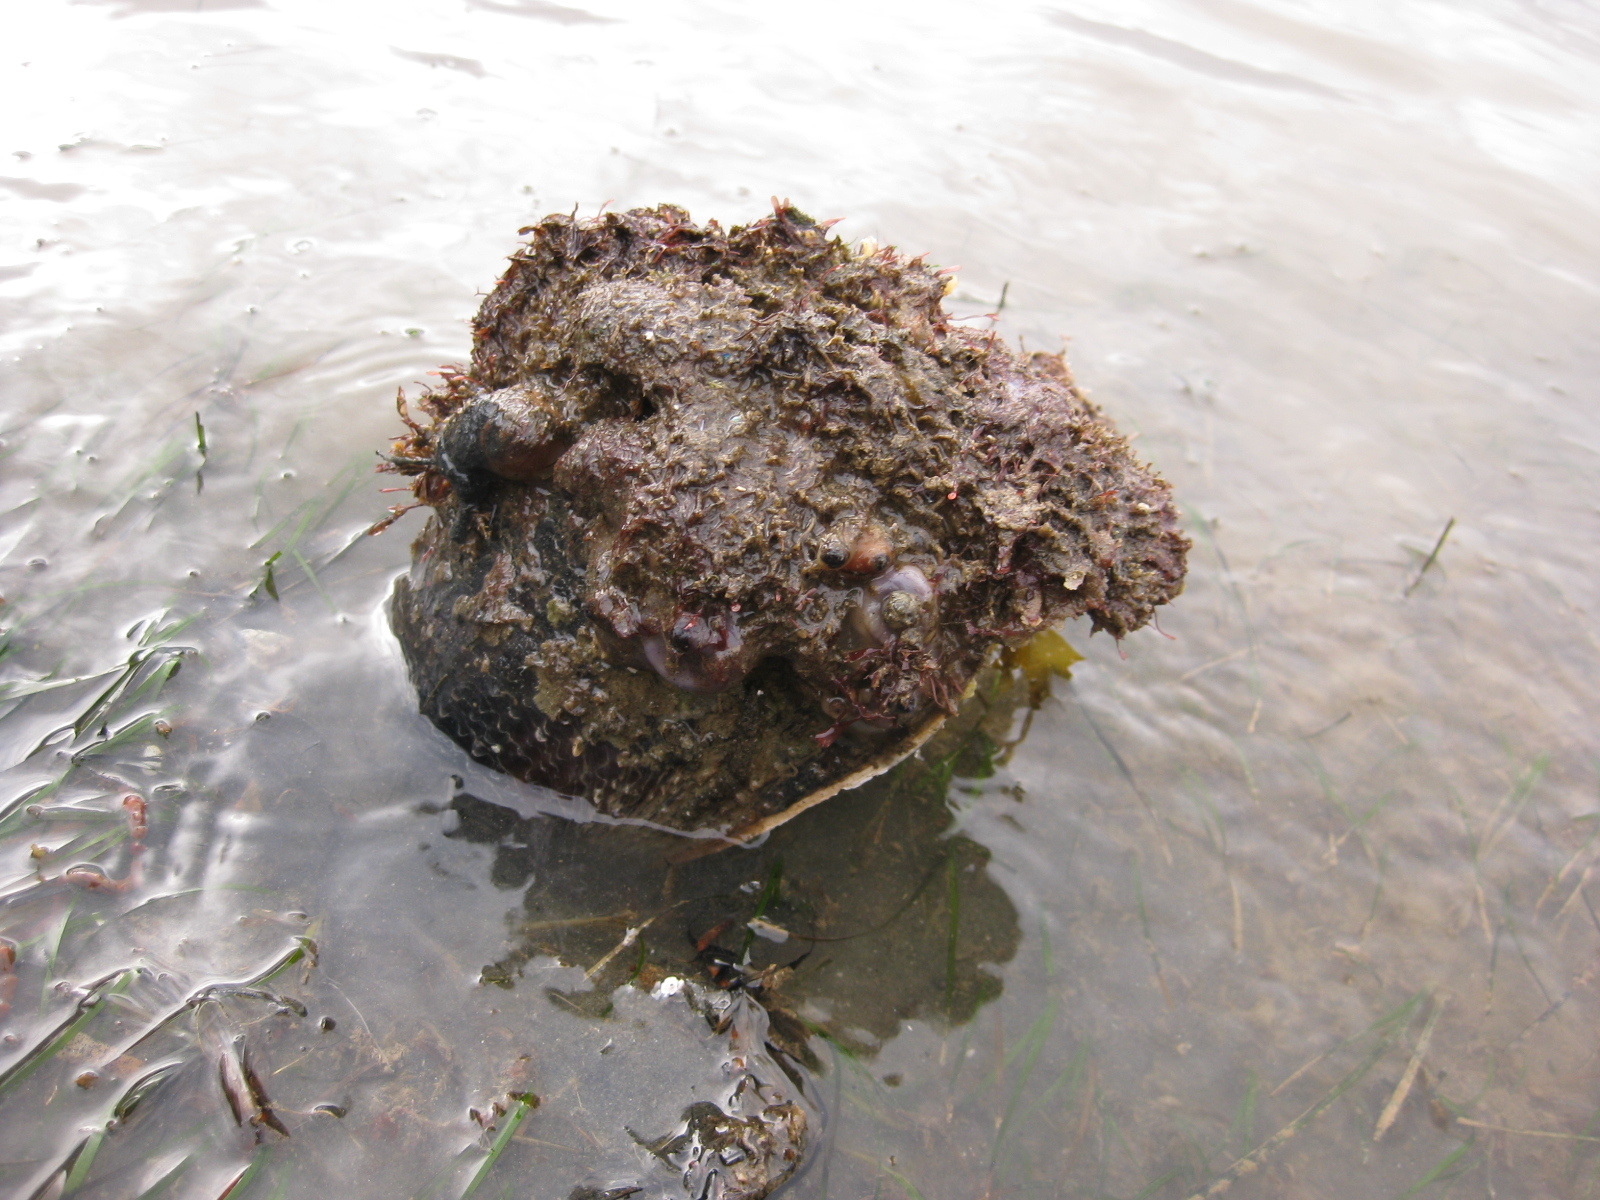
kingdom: Animalia
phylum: Mollusca
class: Bivalvia
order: Ostreida
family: Pinnidae
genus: Atrina
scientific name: Atrina zelandica
